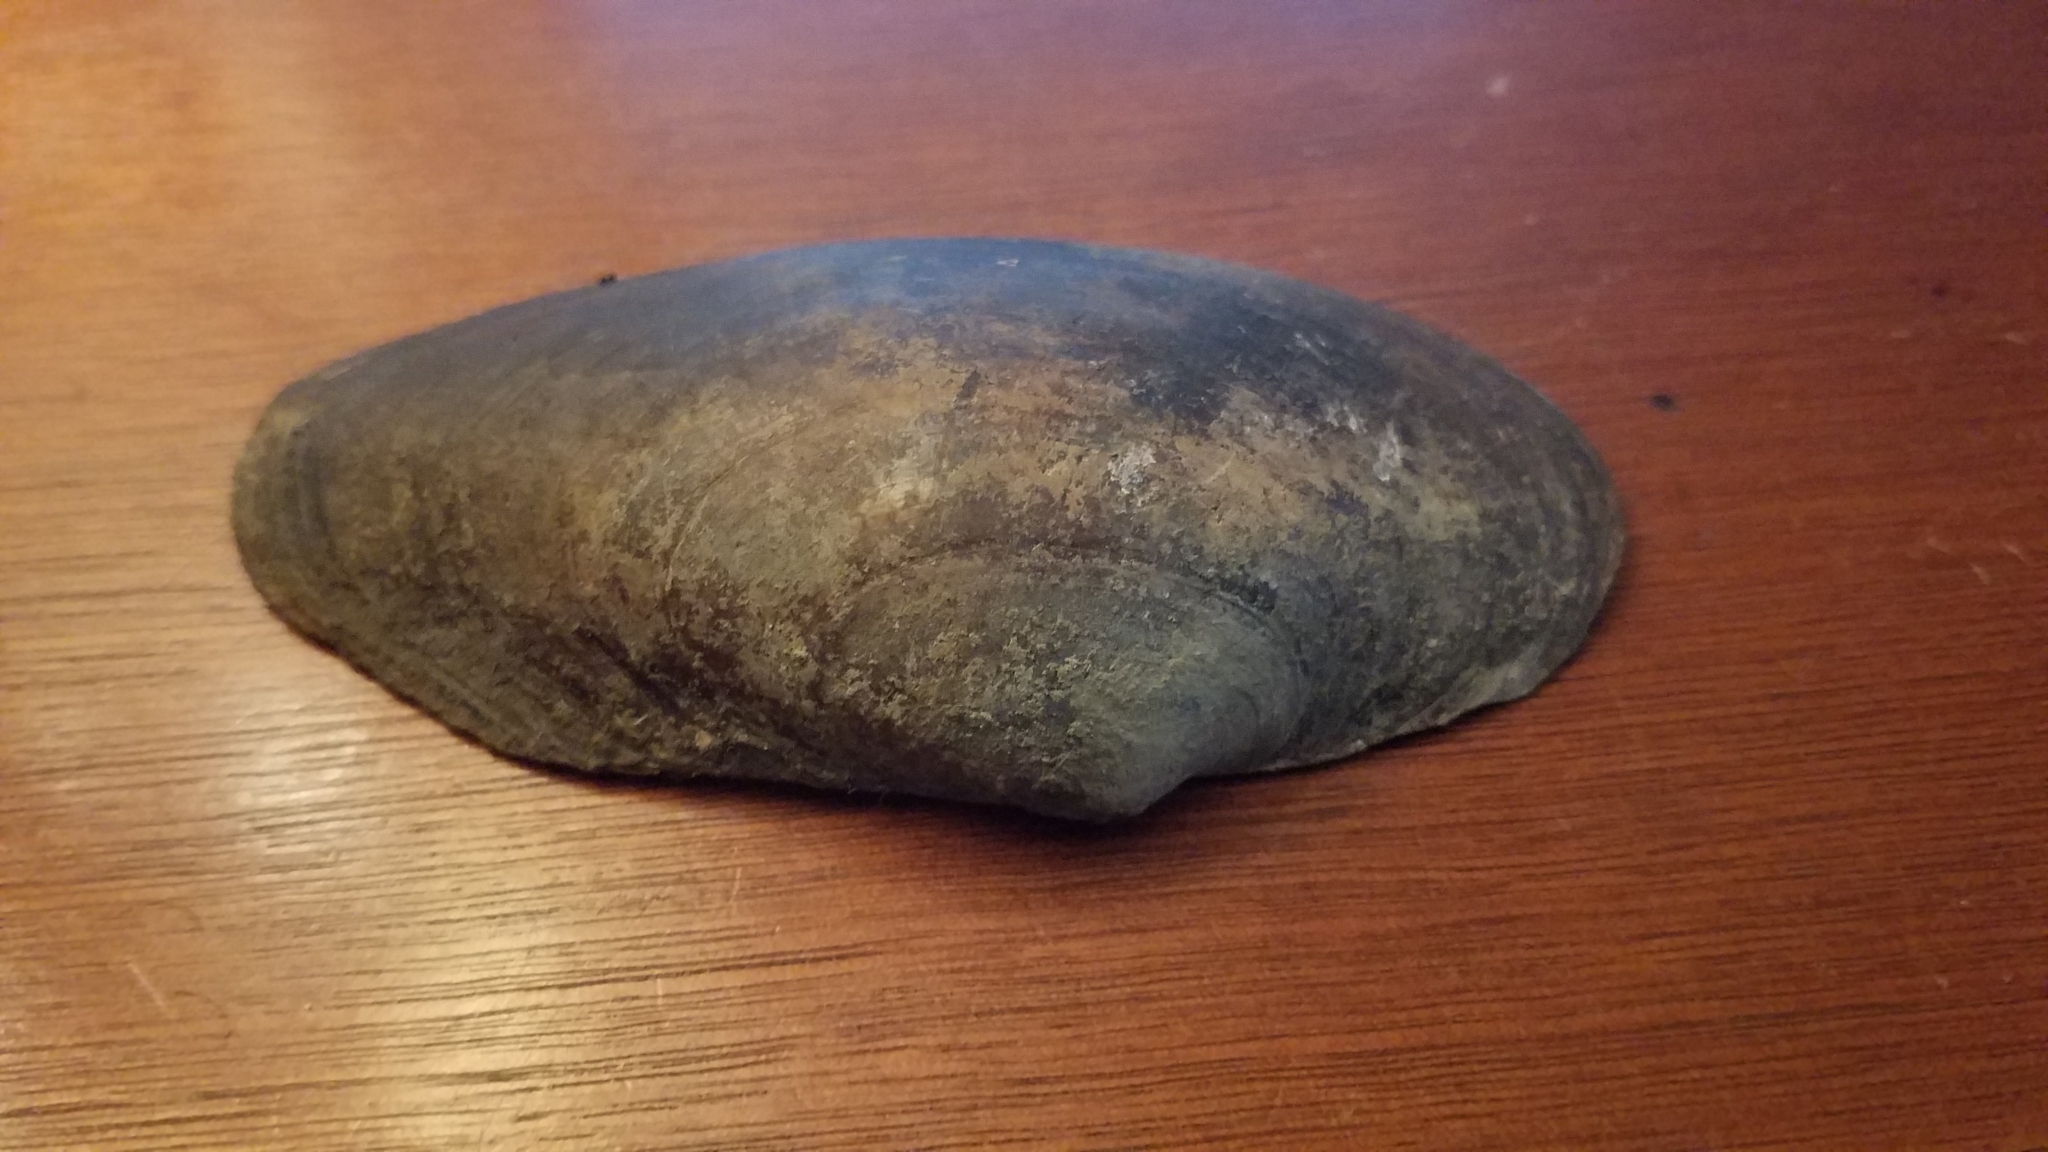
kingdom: Animalia
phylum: Mollusca
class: Bivalvia
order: Unionida
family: Unionidae
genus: Pyganodon
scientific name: Pyganodon grandis
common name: Giant floater
